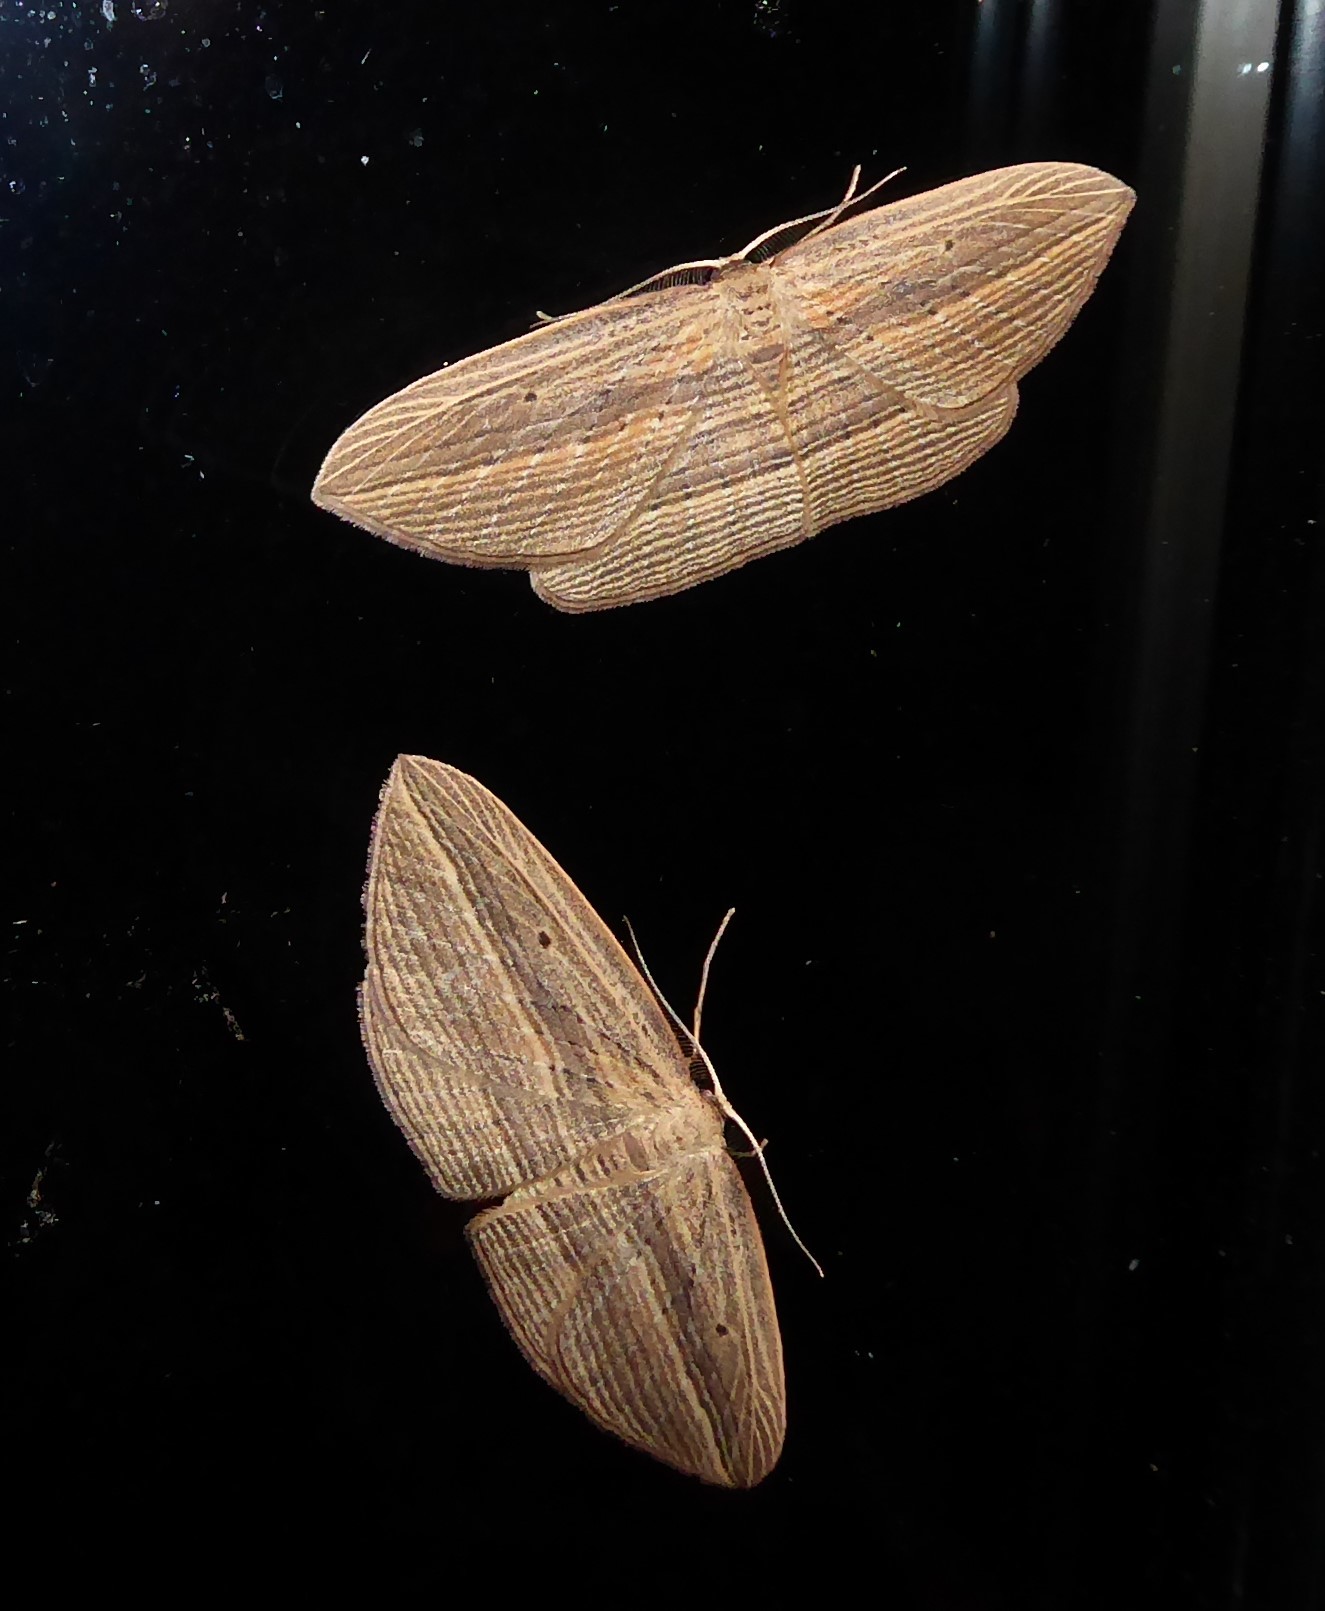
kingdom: Animalia
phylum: Arthropoda
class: Insecta
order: Lepidoptera
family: Geometridae
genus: Epiphryne
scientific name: Epiphryne verriculata
